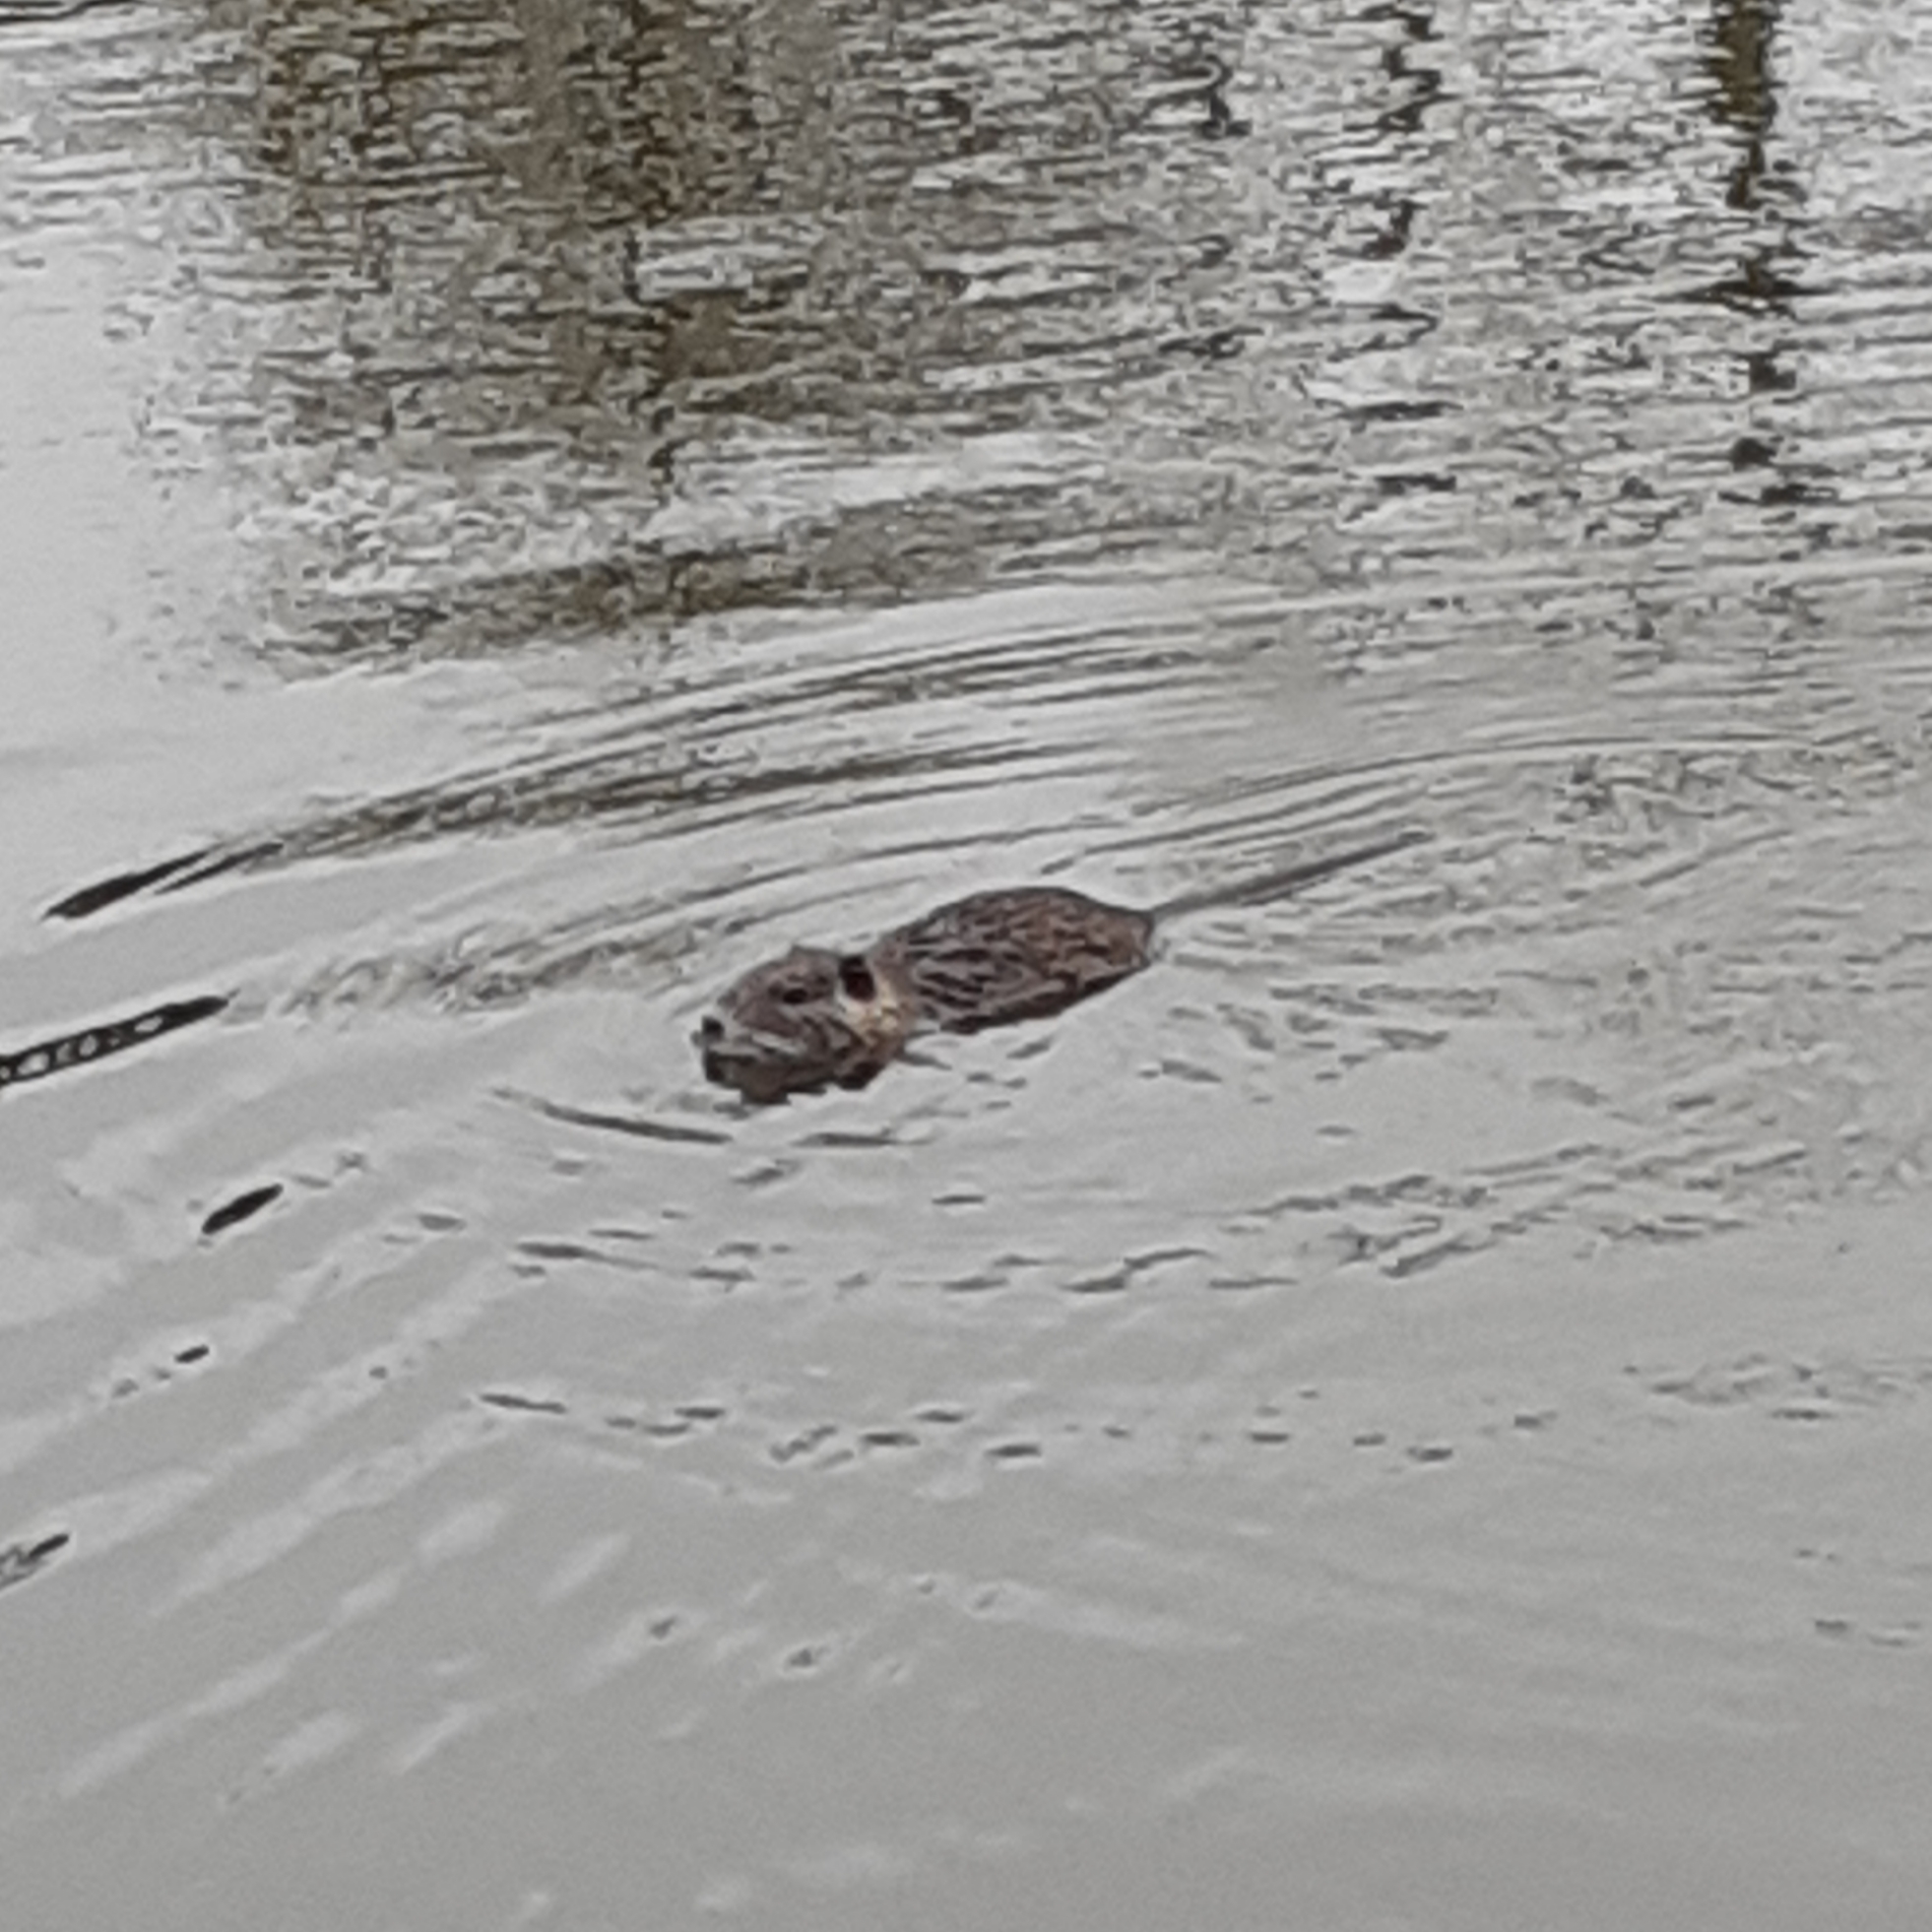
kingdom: Animalia
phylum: Chordata
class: Mammalia
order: Rodentia
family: Myocastoridae
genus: Myocastor
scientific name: Myocastor coypus
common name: Coypu
